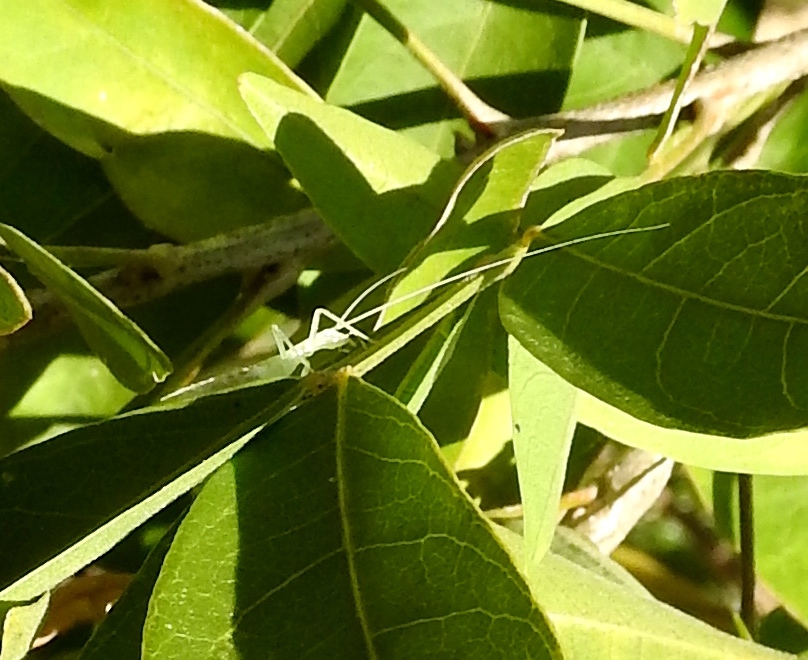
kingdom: Animalia
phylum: Arthropoda
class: Insecta
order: Orthoptera
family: Oecanthidae
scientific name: Oecanthidae
